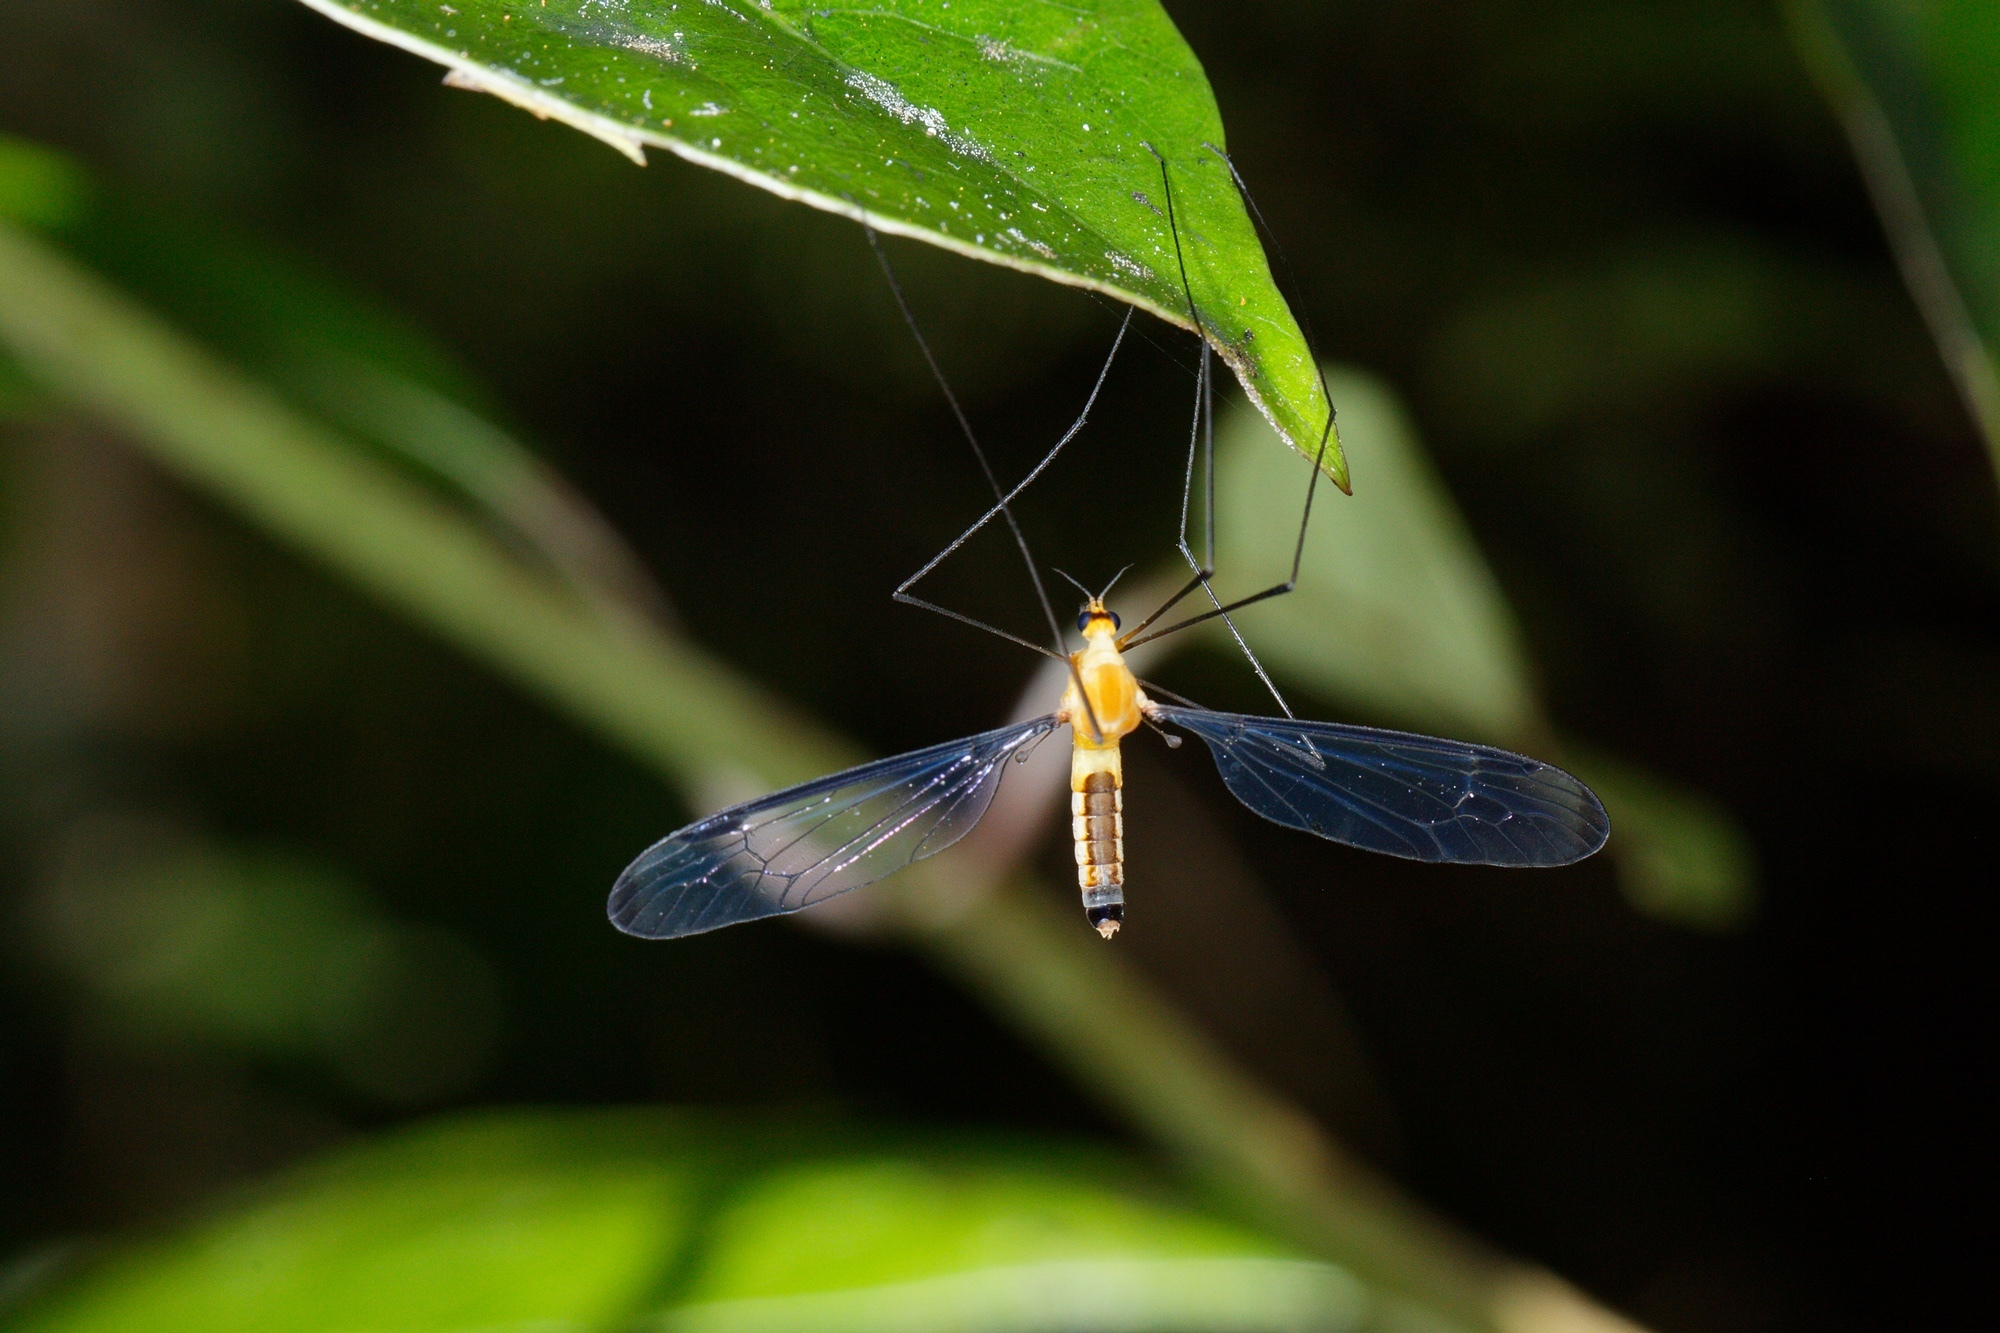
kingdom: Animalia
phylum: Arthropoda
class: Insecta
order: Diptera
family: Tipulidae
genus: Aurotipula
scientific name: Aurotipula
